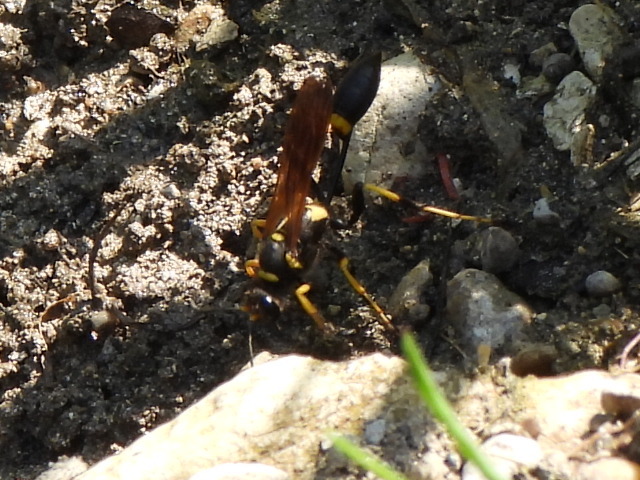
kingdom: Animalia
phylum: Arthropoda
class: Insecta
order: Hymenoptera
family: Sphecidae
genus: Sceliphron
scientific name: Sceliphron caementarium
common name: Mud dauber
